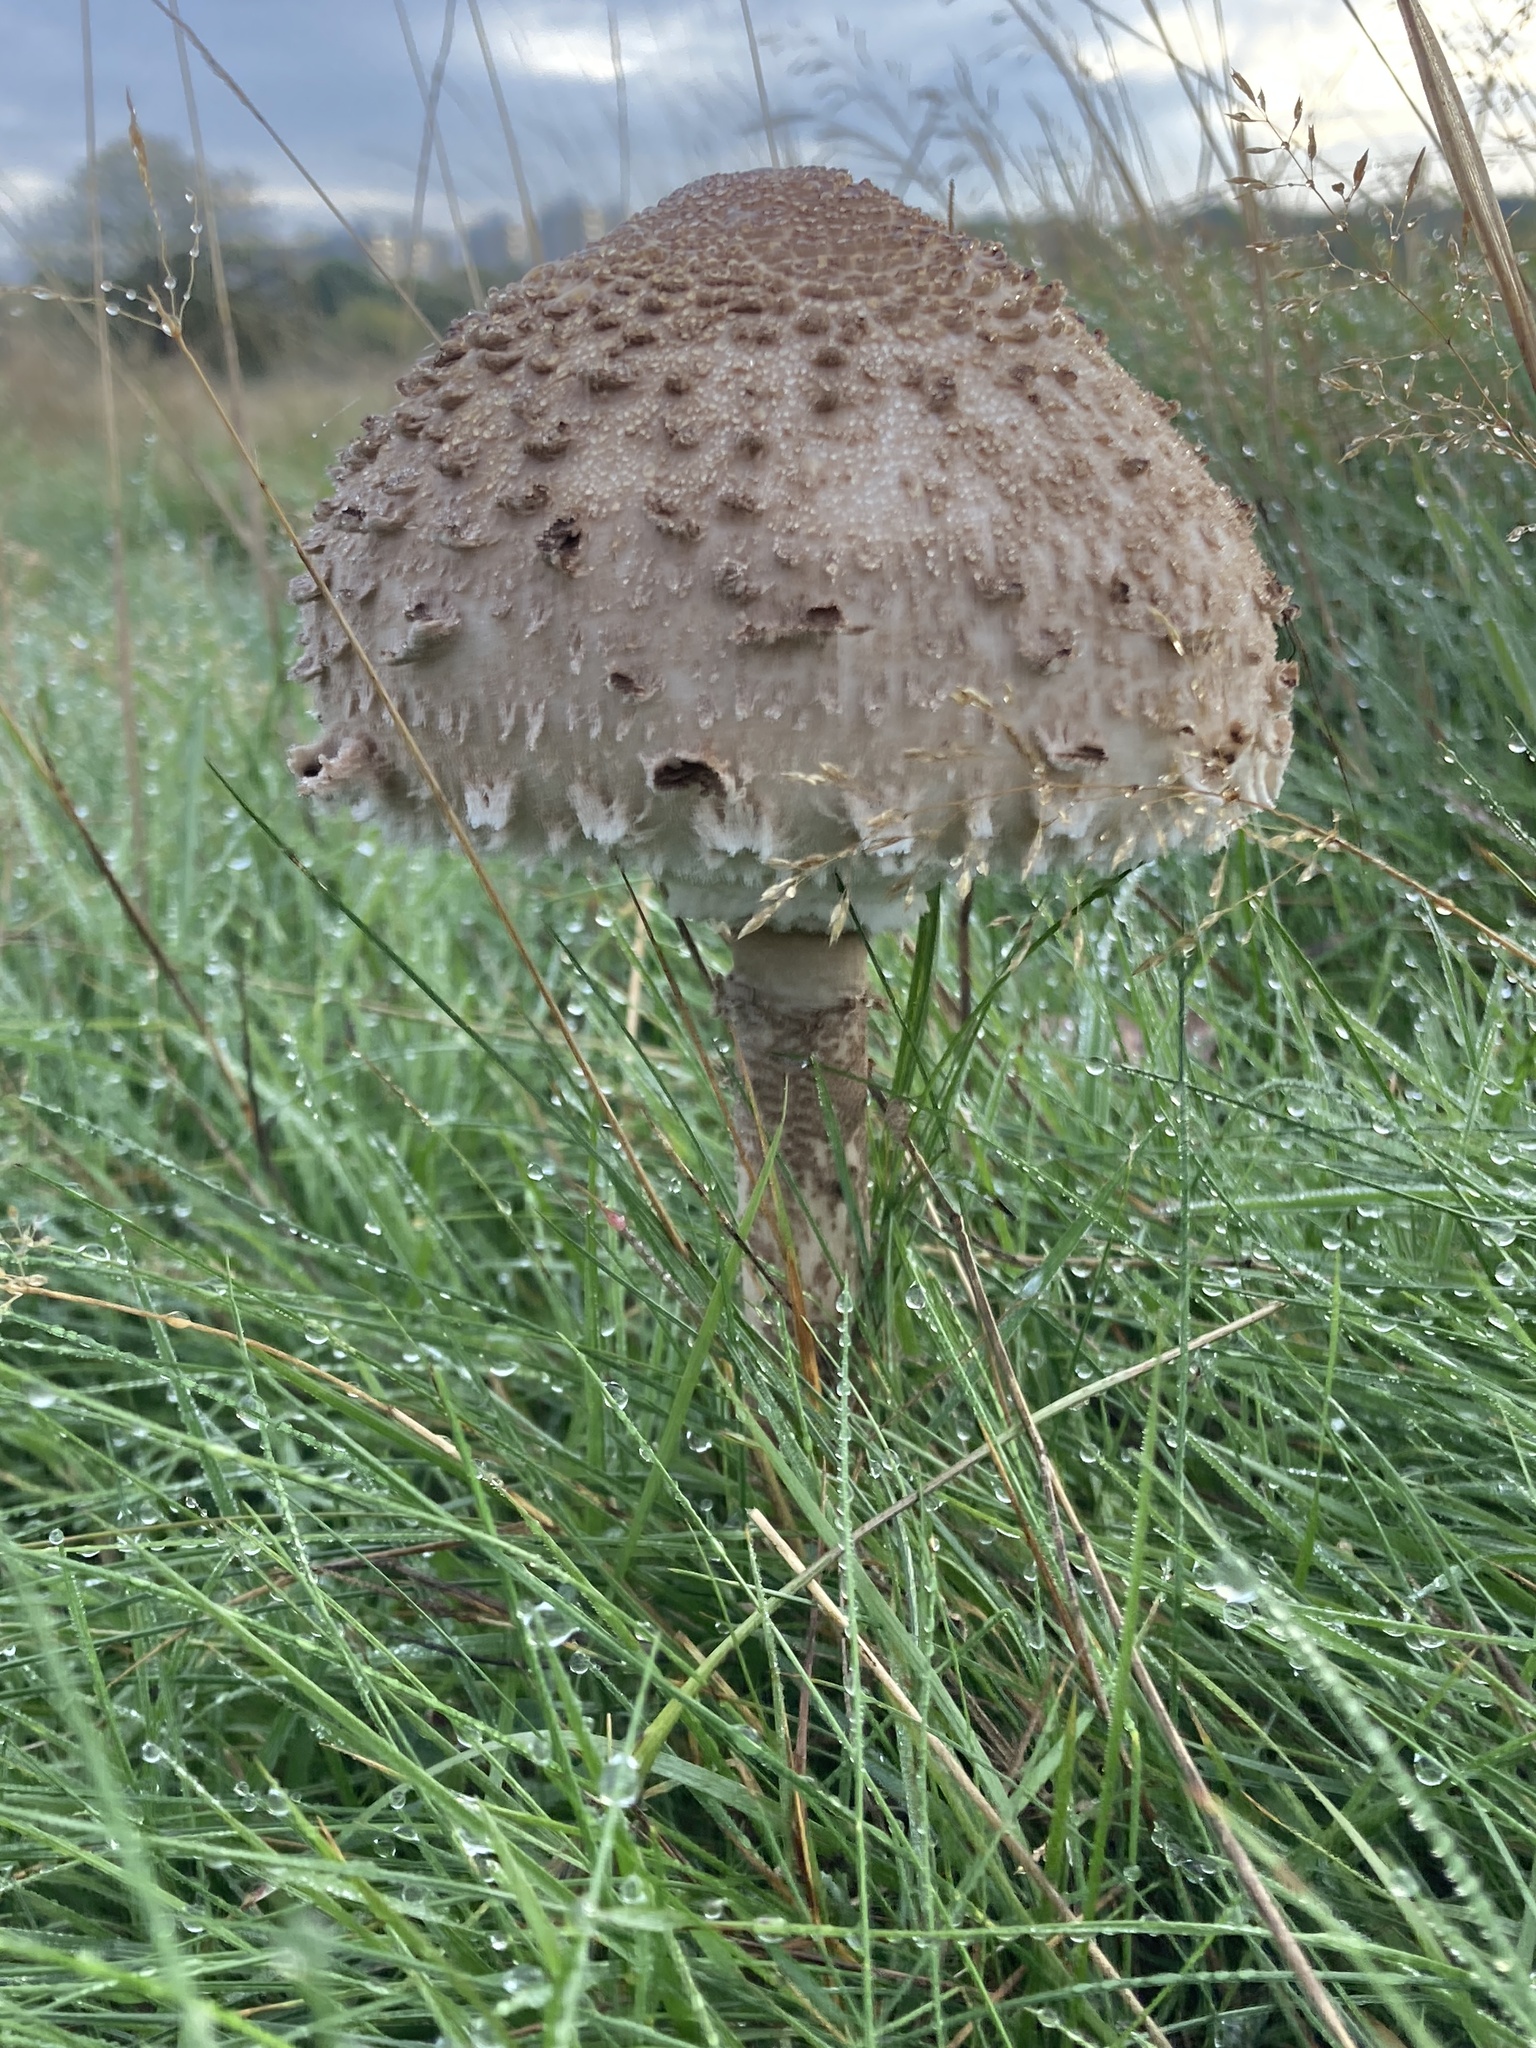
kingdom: Fungi
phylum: Basidiomycota
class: Agaricomycetes
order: Agaricales
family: Agaricaceae
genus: Macrolepiota
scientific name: Macrolepiota procera
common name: Parasol
